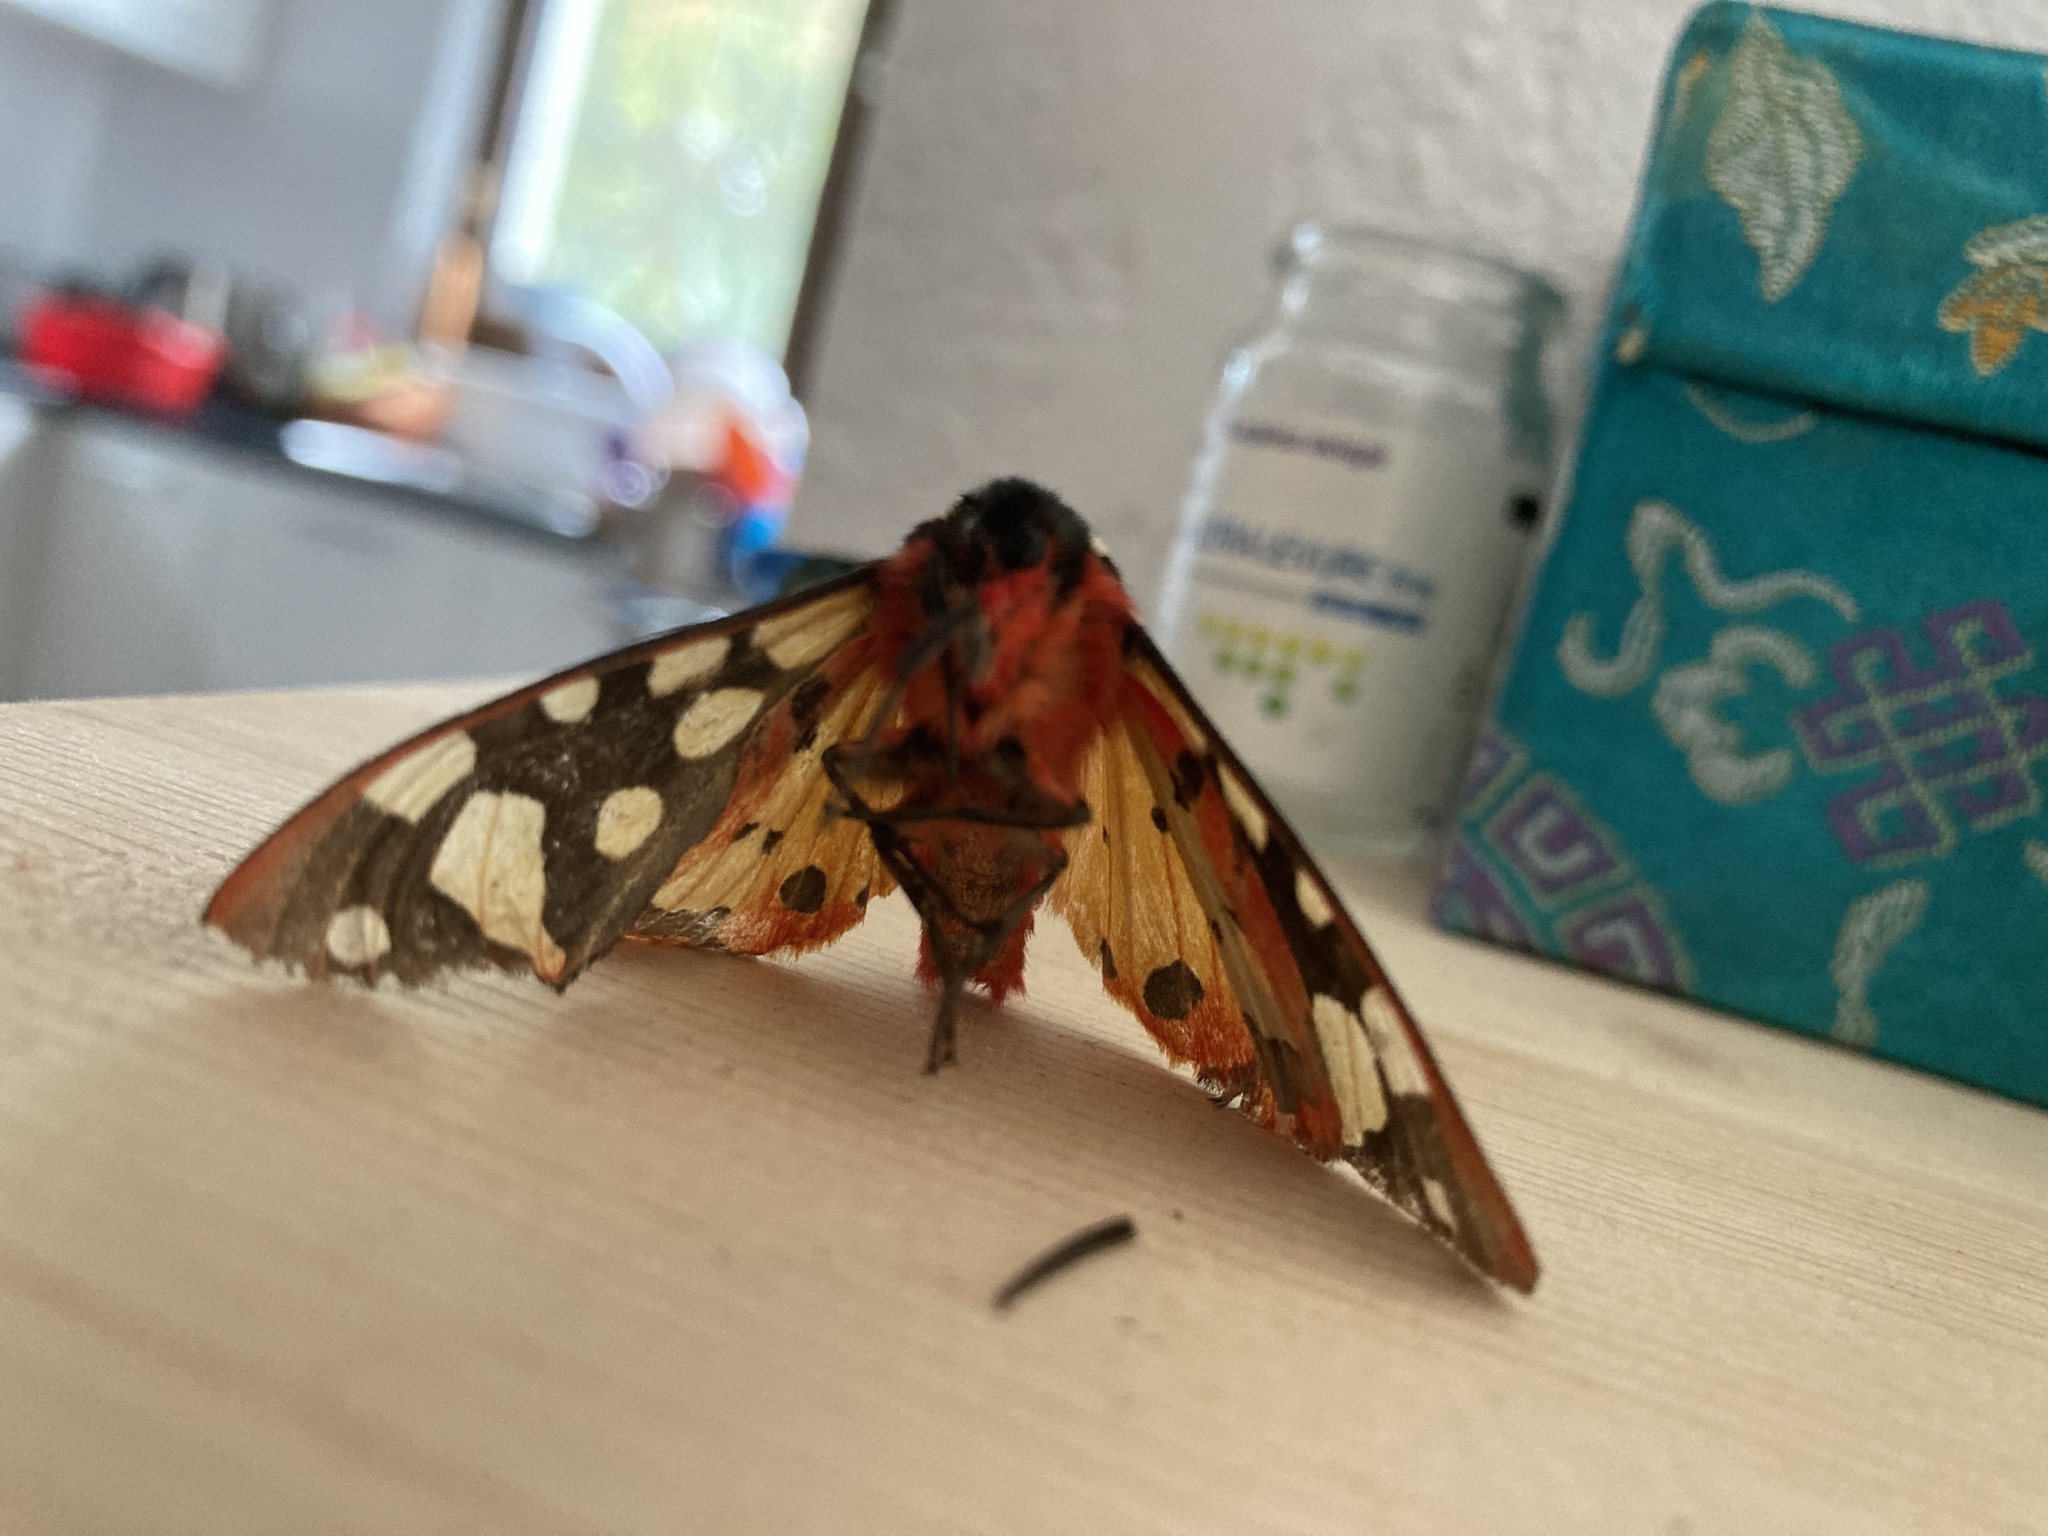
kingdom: Animalia
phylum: Arthropoda
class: Insecta
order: Lepidoptera
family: Erebidae
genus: Epicallia
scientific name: Epicallia villica
